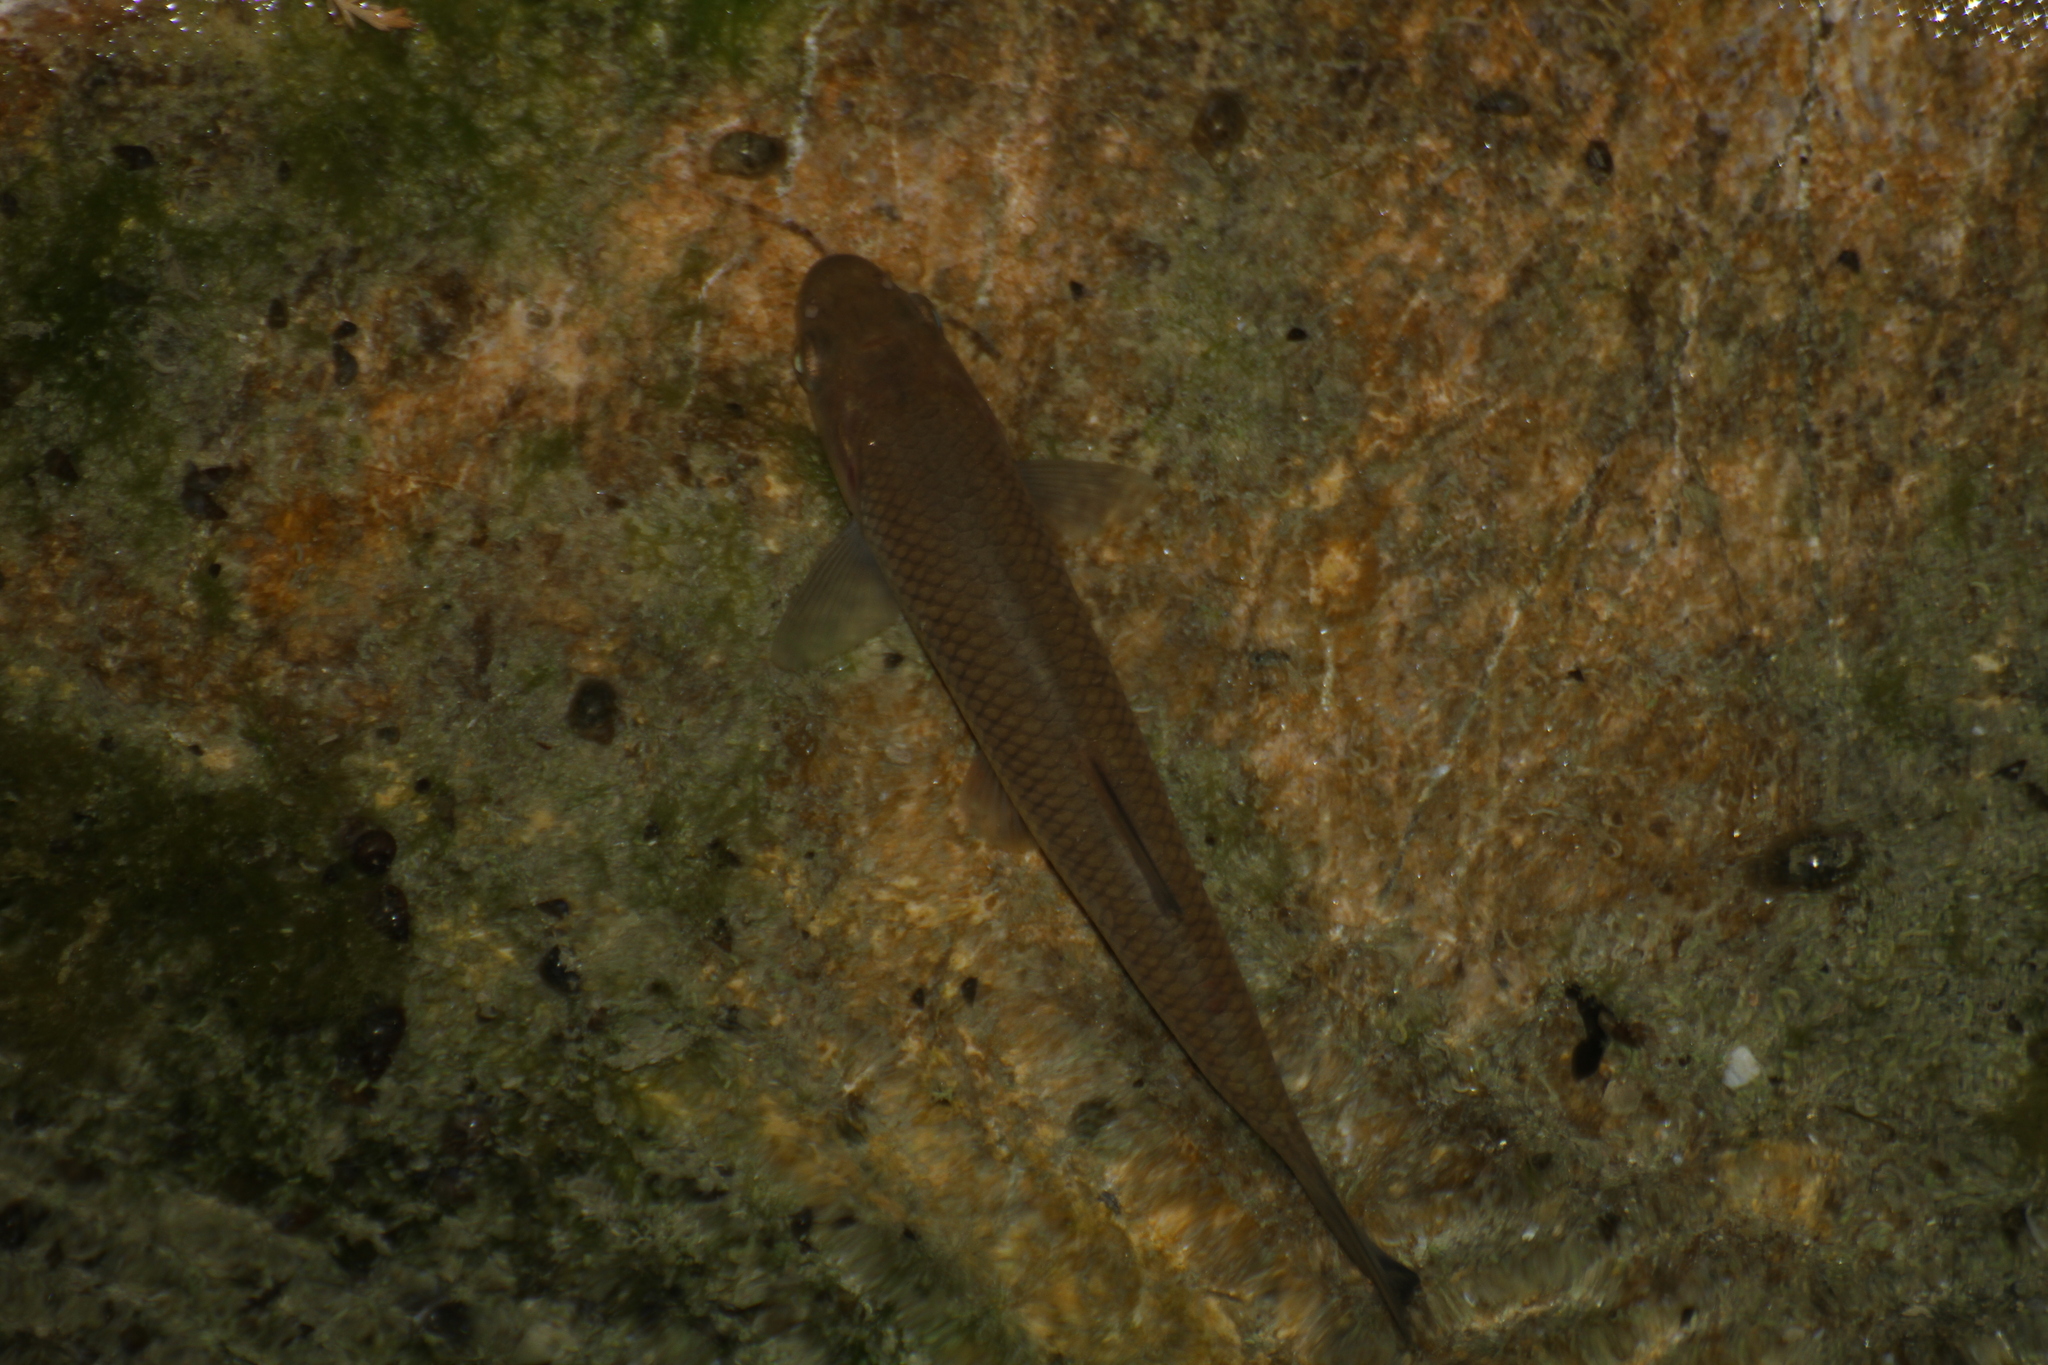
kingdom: Animalia
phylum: Chordata
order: Cypriniformes
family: Cyprinidae
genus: Squalius
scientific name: Squalius cephalus
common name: Chub
